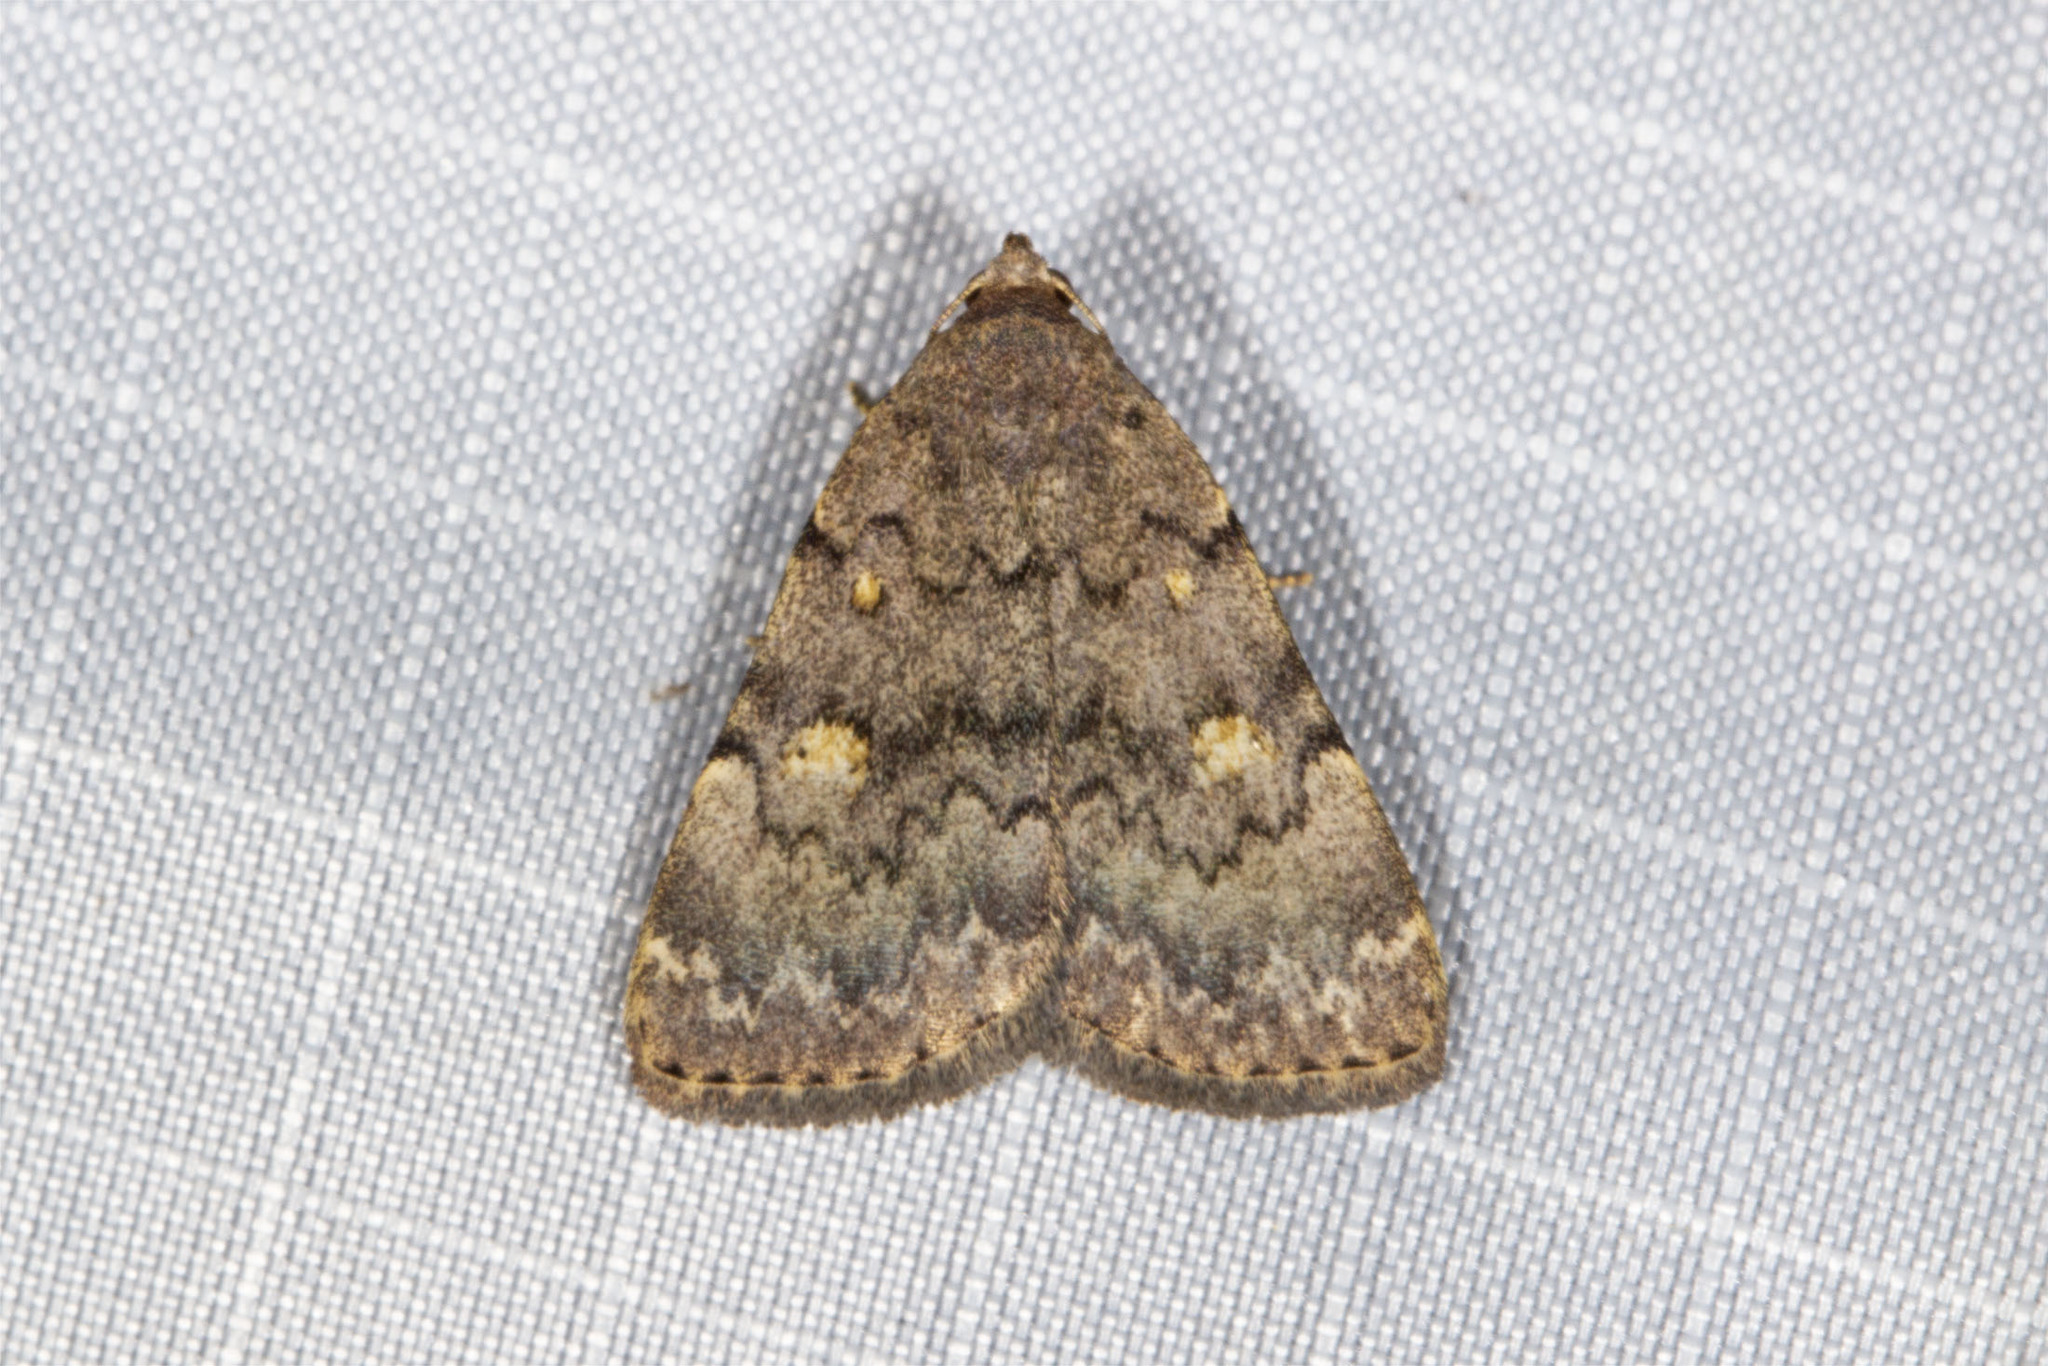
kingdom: Animalia
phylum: Arthropoda
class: Insecta
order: Lepidoptera
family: Erebidae
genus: Idia
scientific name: Idia aemula
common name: Common idia moth
